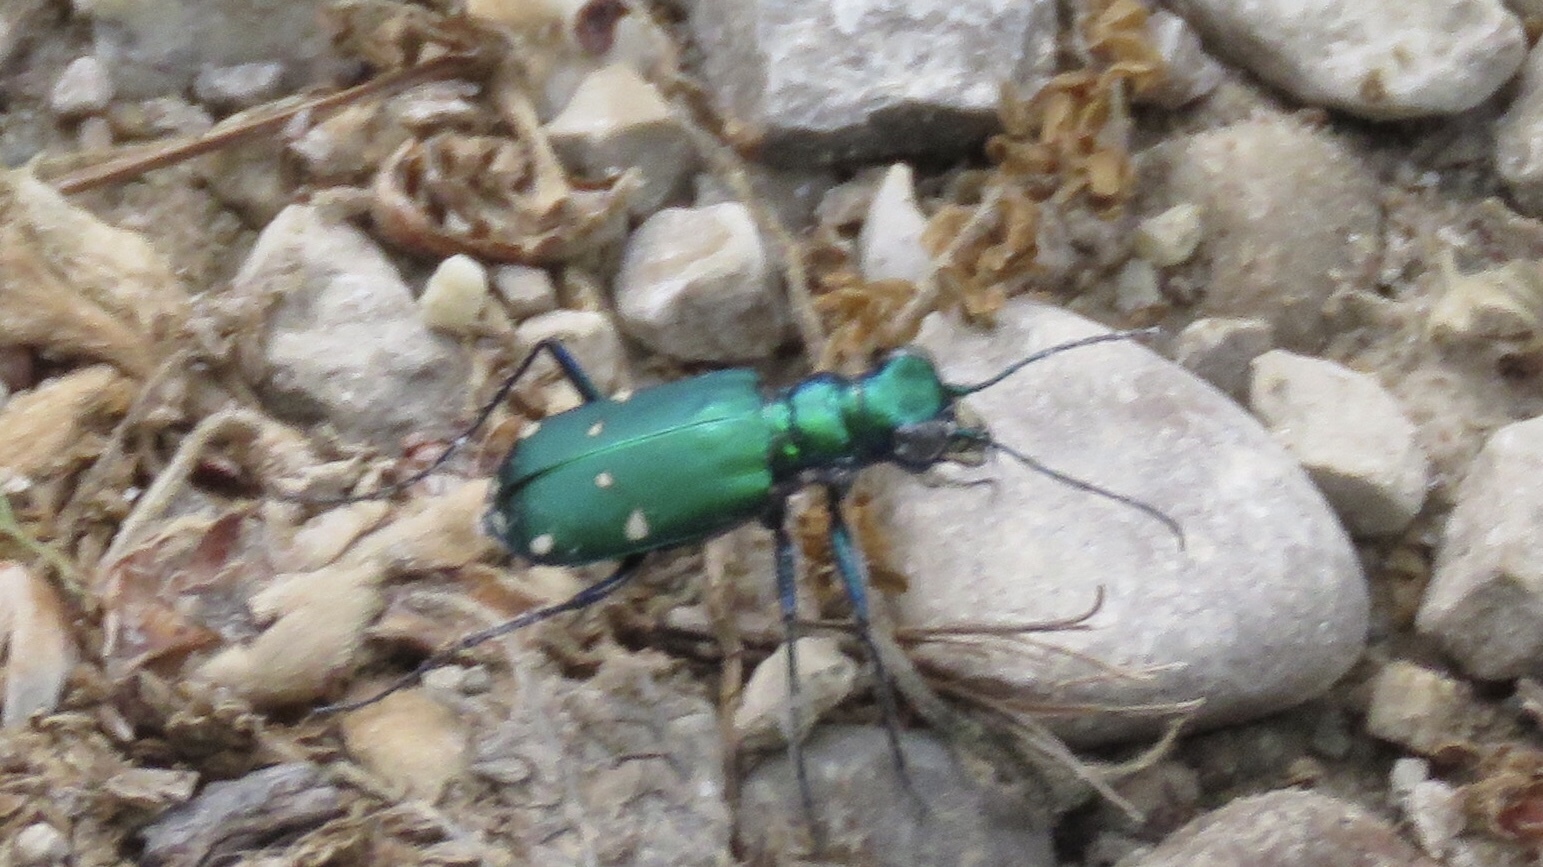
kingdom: Animalia
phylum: Arthropoda
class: Insecta
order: Coleoptera
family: Carabidae
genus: Cicindela
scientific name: Cicindela sexguttata
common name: Six-spotted tiger beetle
